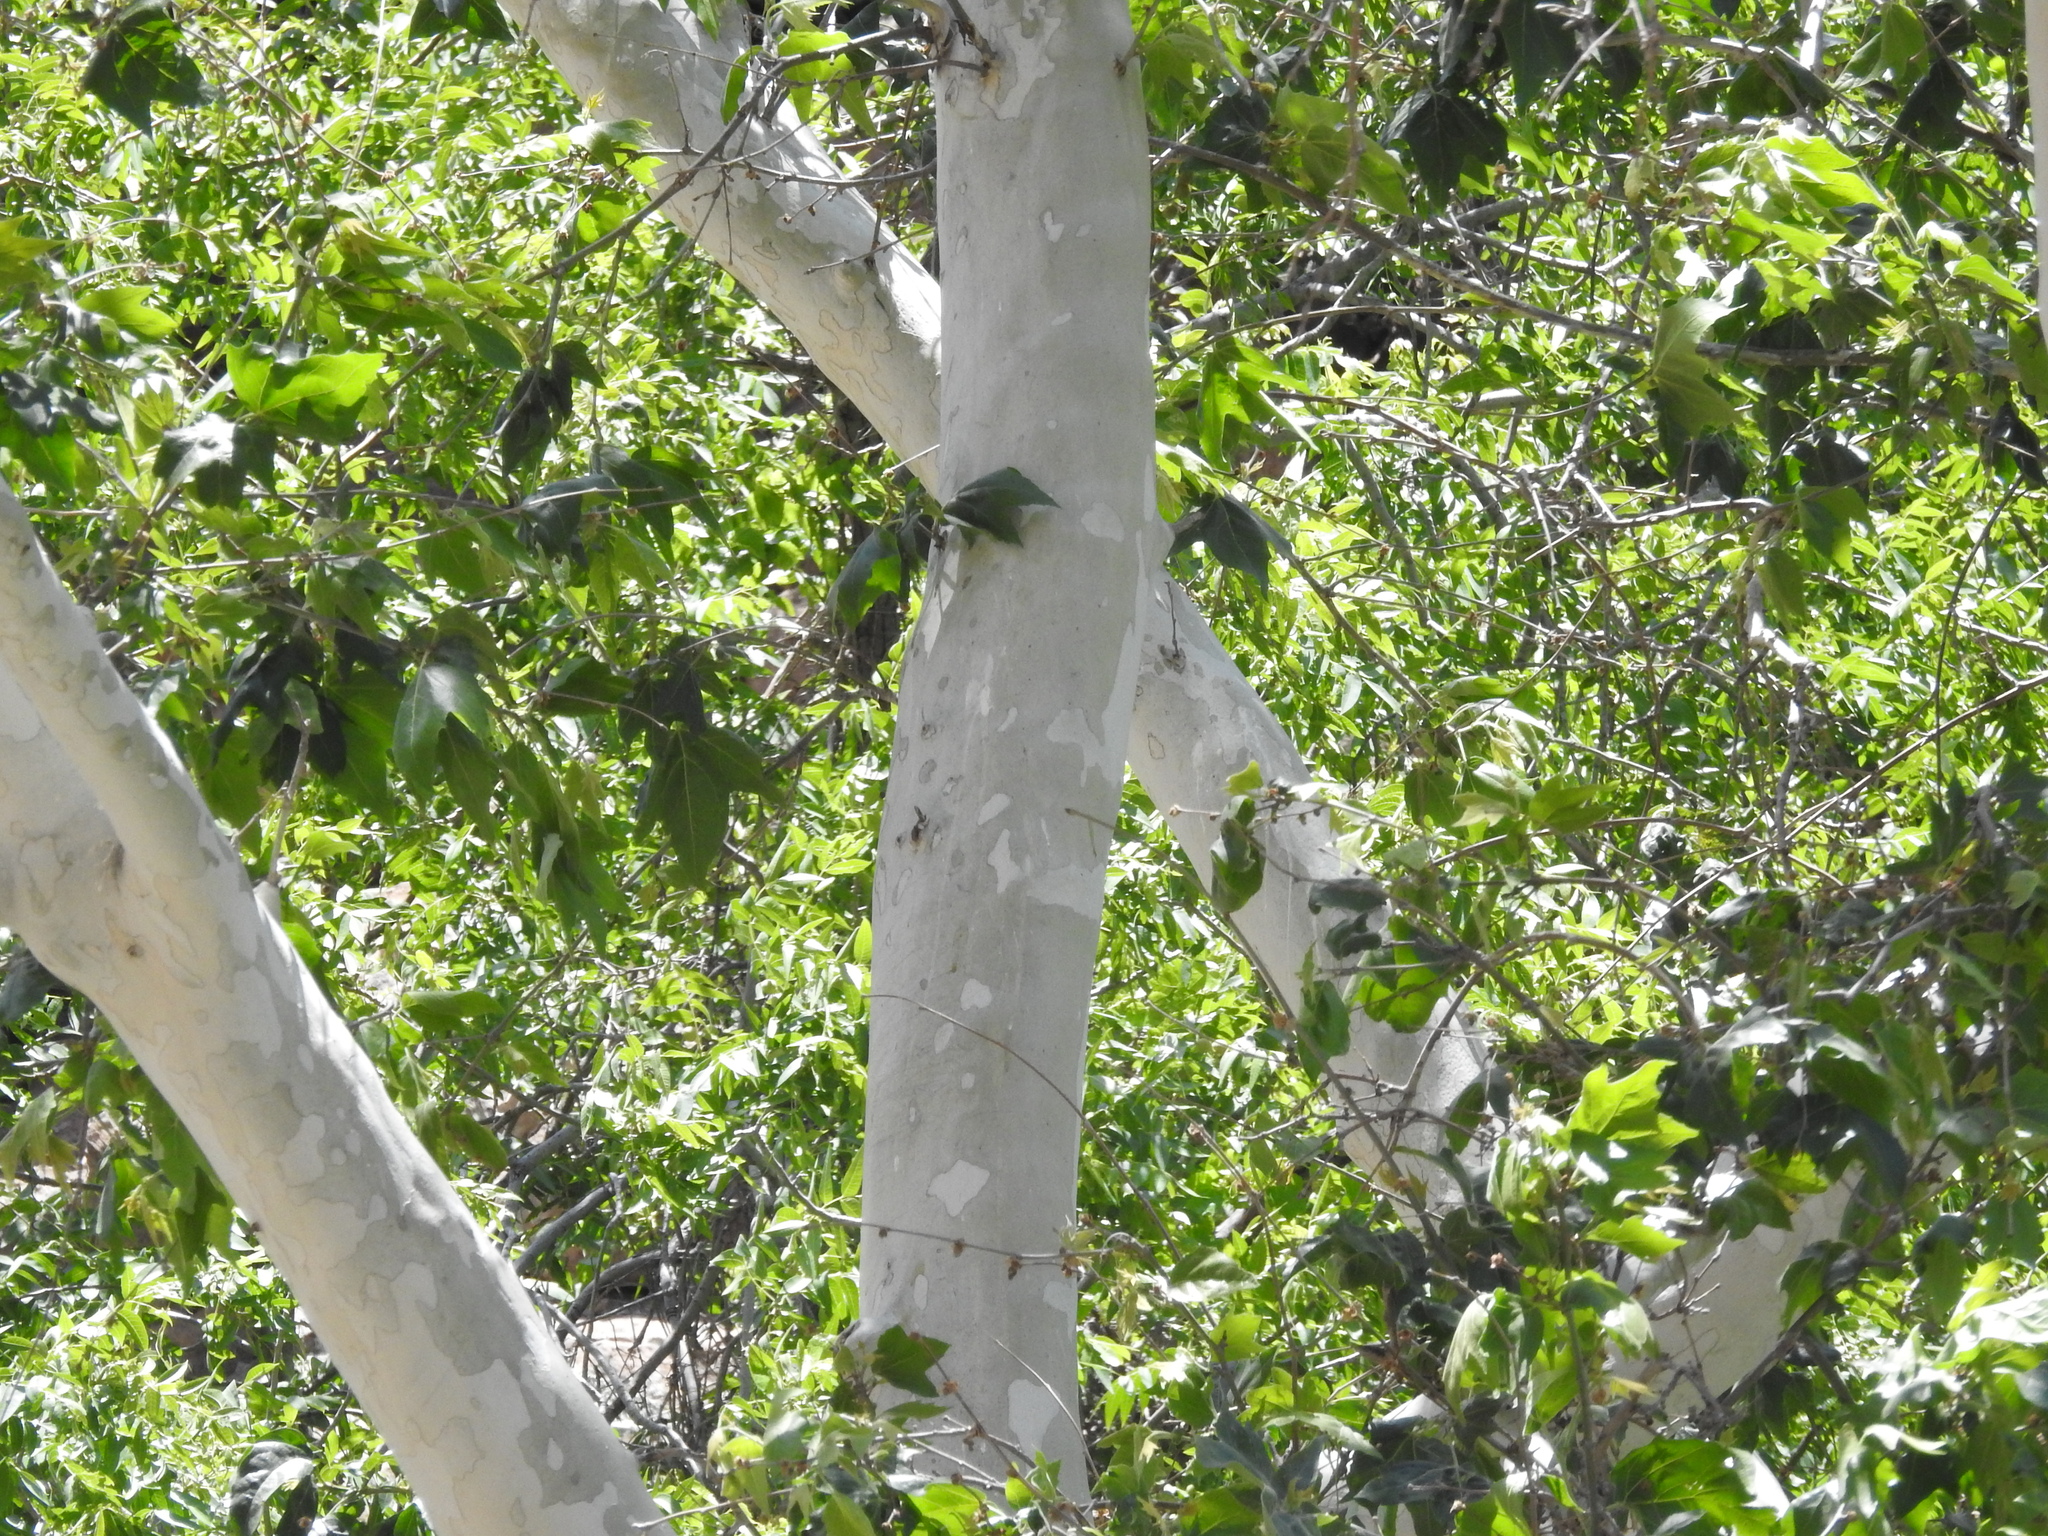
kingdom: Plantae
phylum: Tracheophyta
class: Magnoliopsida
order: Proteales
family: Platanaceae
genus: Platanus
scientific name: Platanus wrightii
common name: Arizona sycamore
